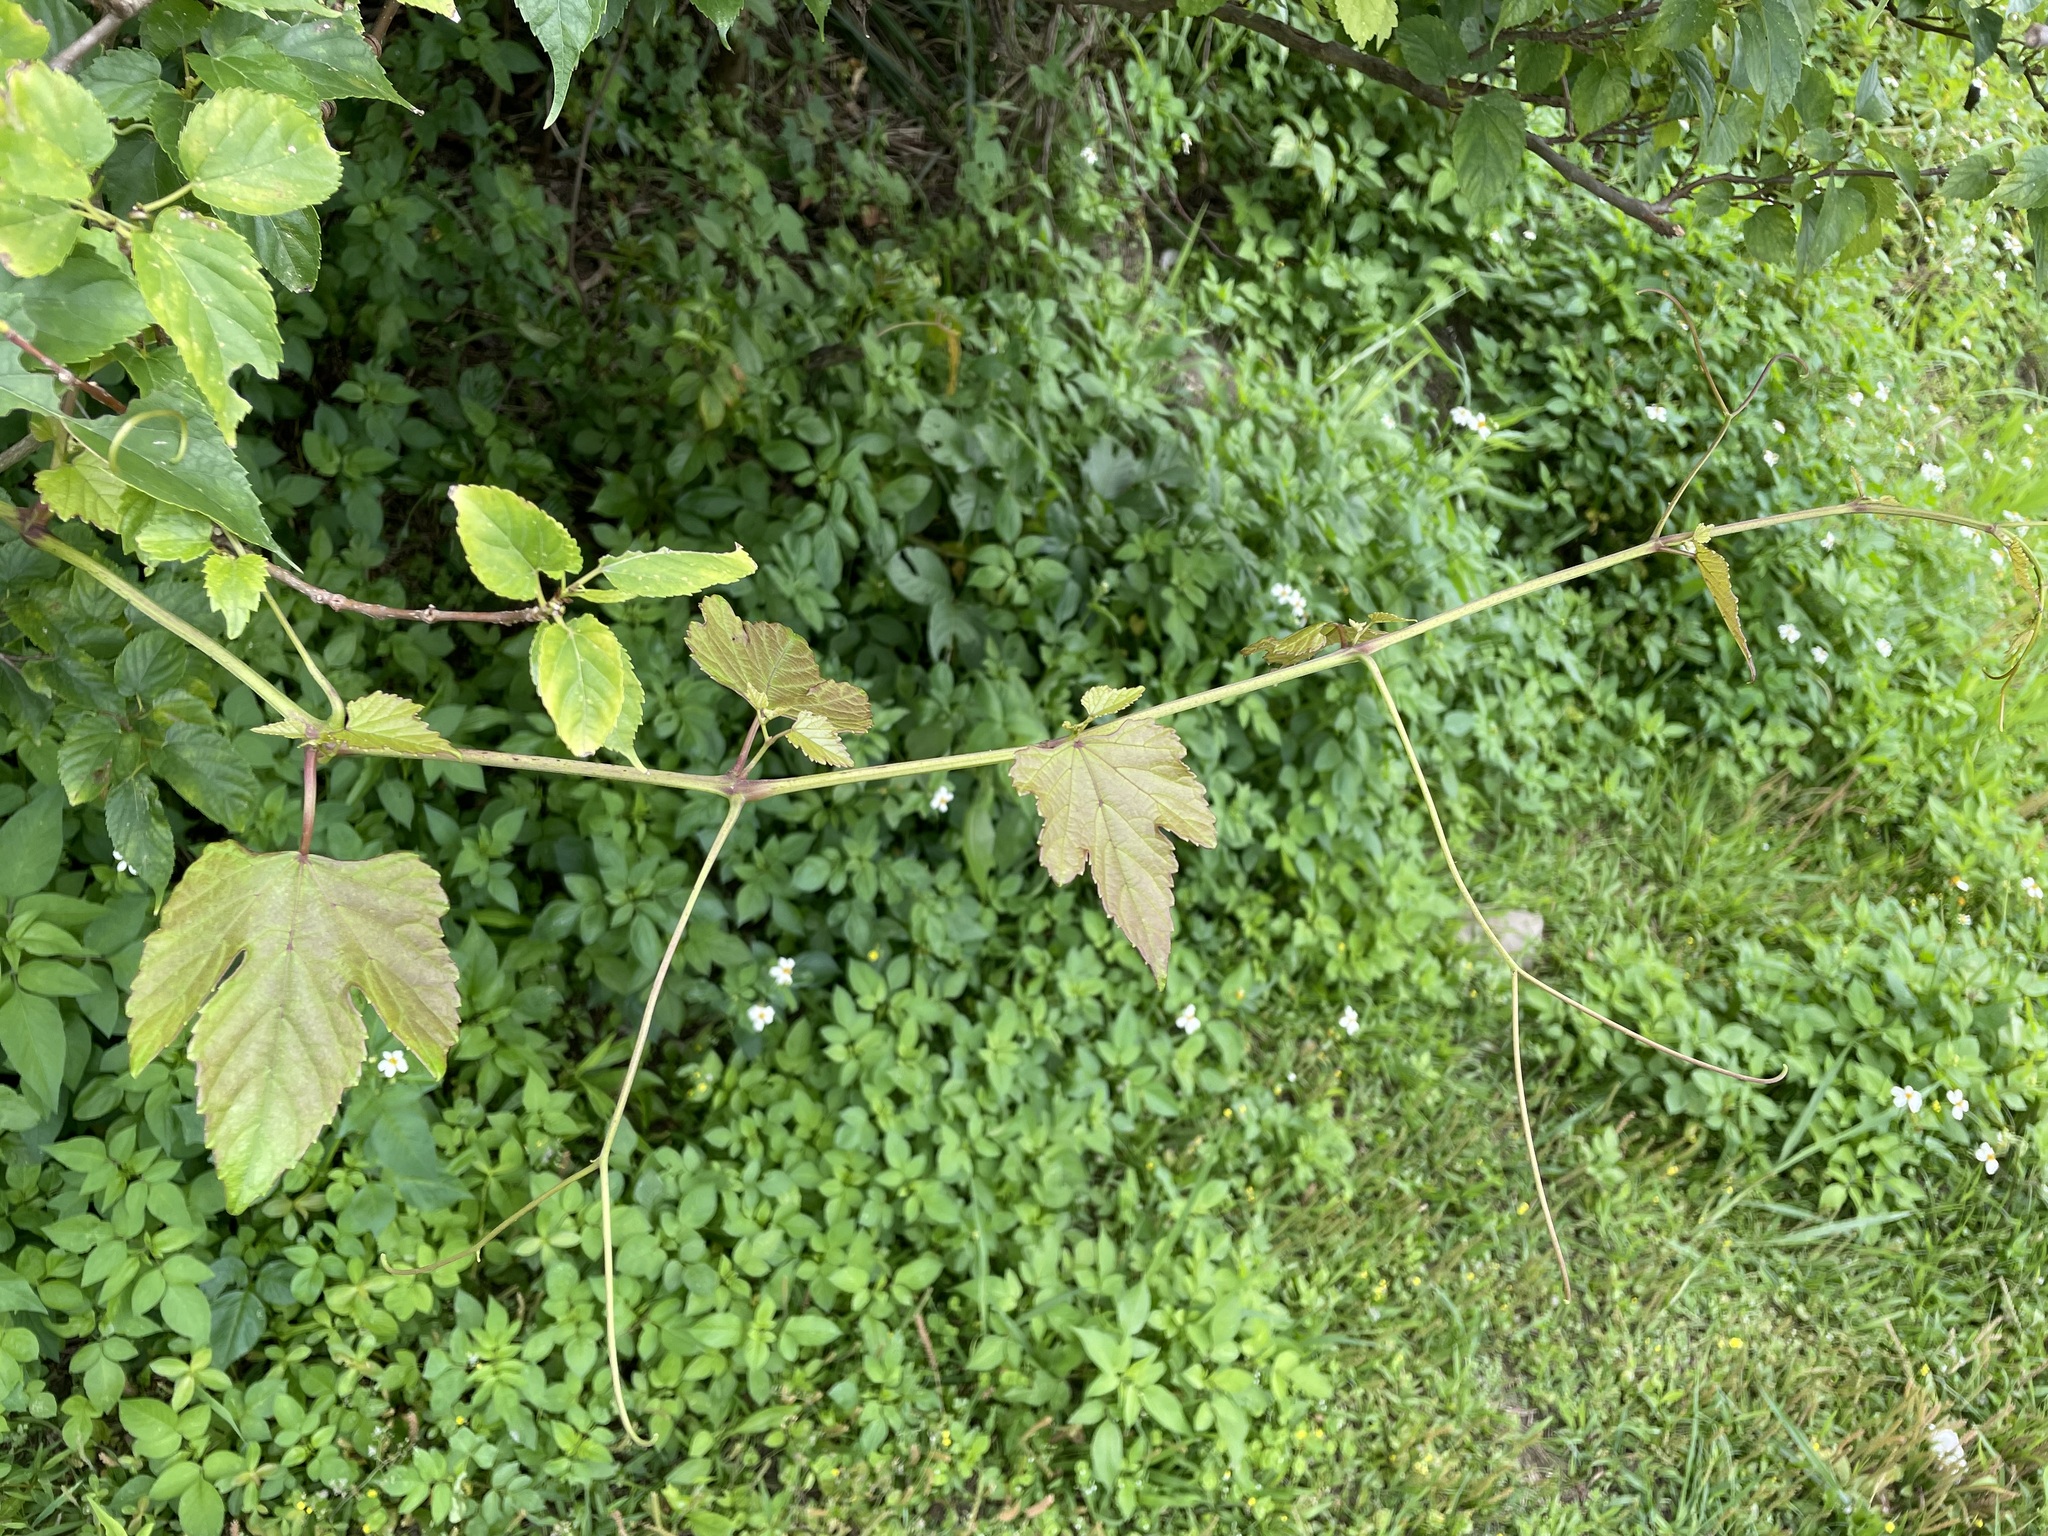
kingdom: Plantae
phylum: Tracheophyta
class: Magnoliopsida
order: Vitales
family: Vitaceae
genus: Ampelopsis
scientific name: Ampelopsis glandulosa
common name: Amur peppervine
